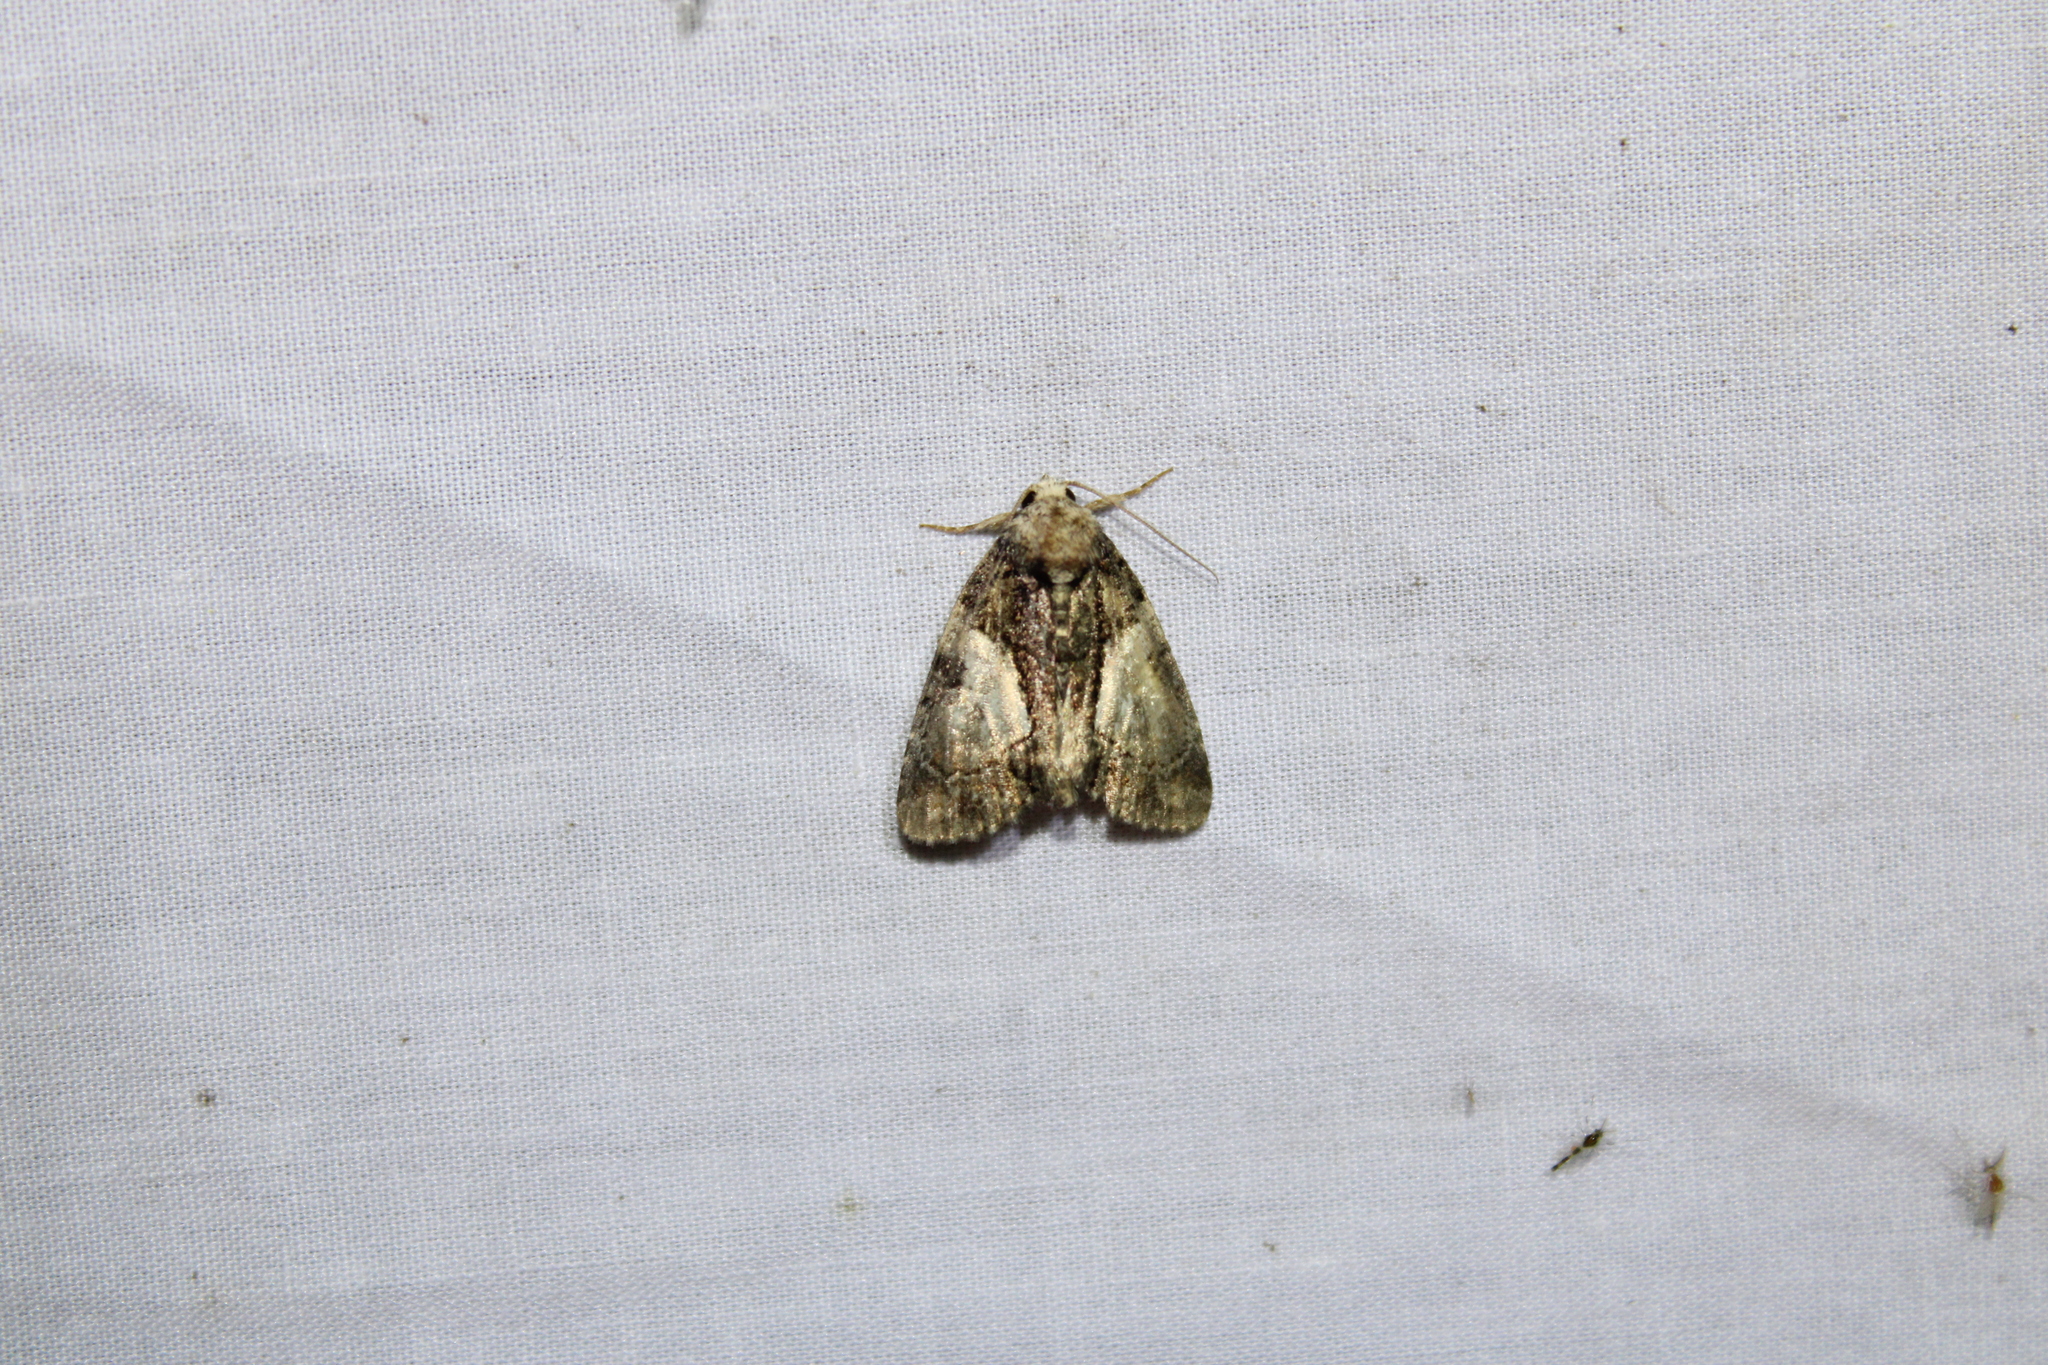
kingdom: Animalia
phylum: Arthropoda
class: Insecta
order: Lepidoptera
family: Noctuidae
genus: Chytonix
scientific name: Chytonix palliatricula
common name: Cloaked marvel
